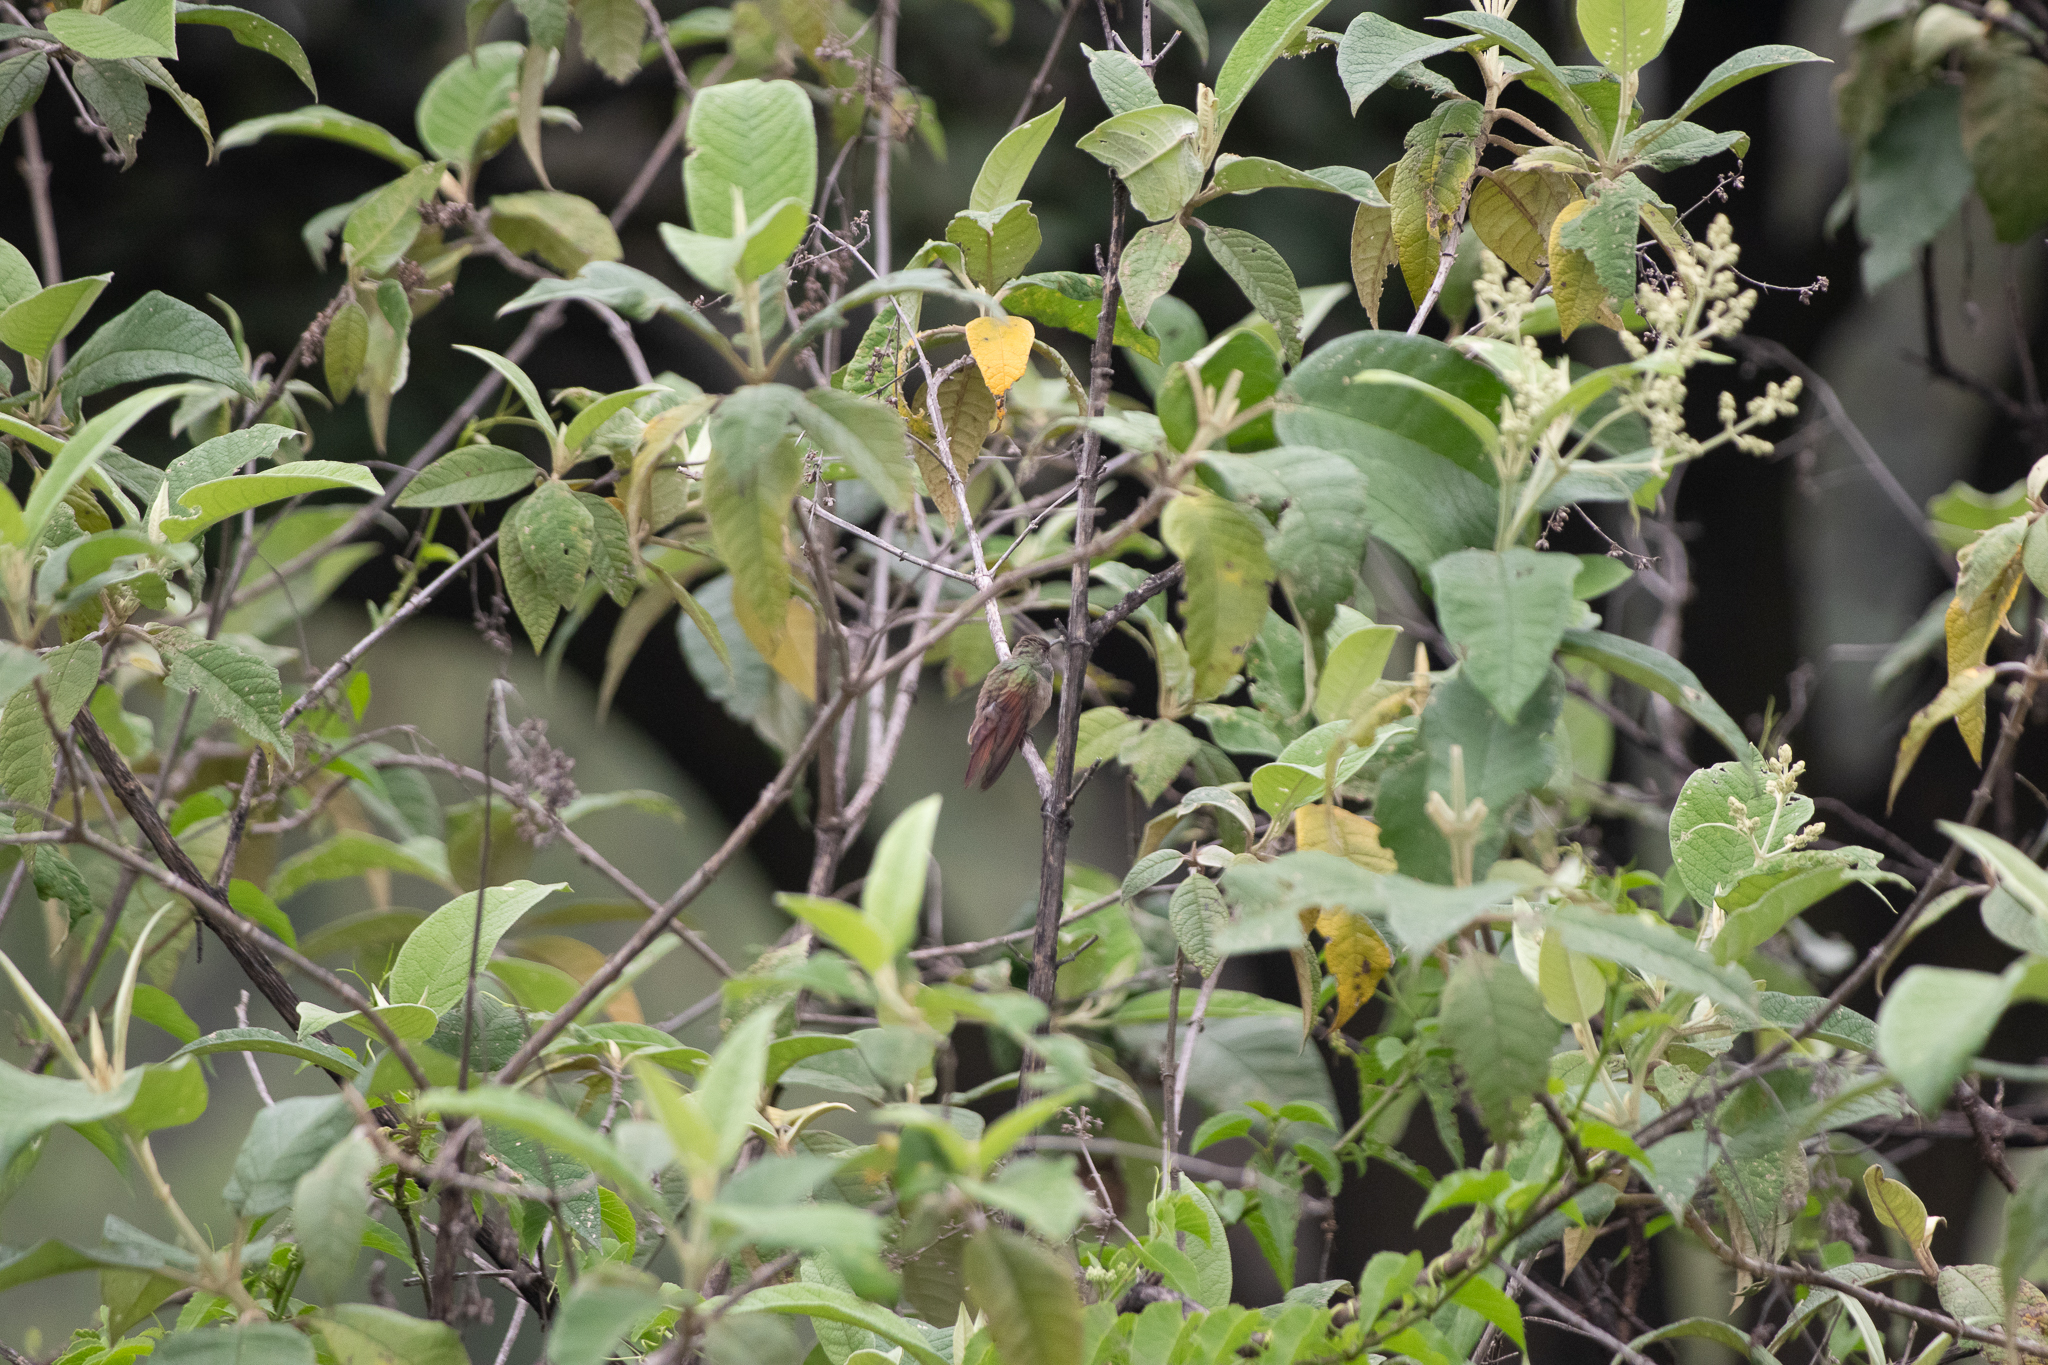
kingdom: Animalia
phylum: Chordata
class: Aves
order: Apodiformes
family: Trochilidae
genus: Saucerottia
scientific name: Saucerottia beryllina
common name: Berylline hummingbird
